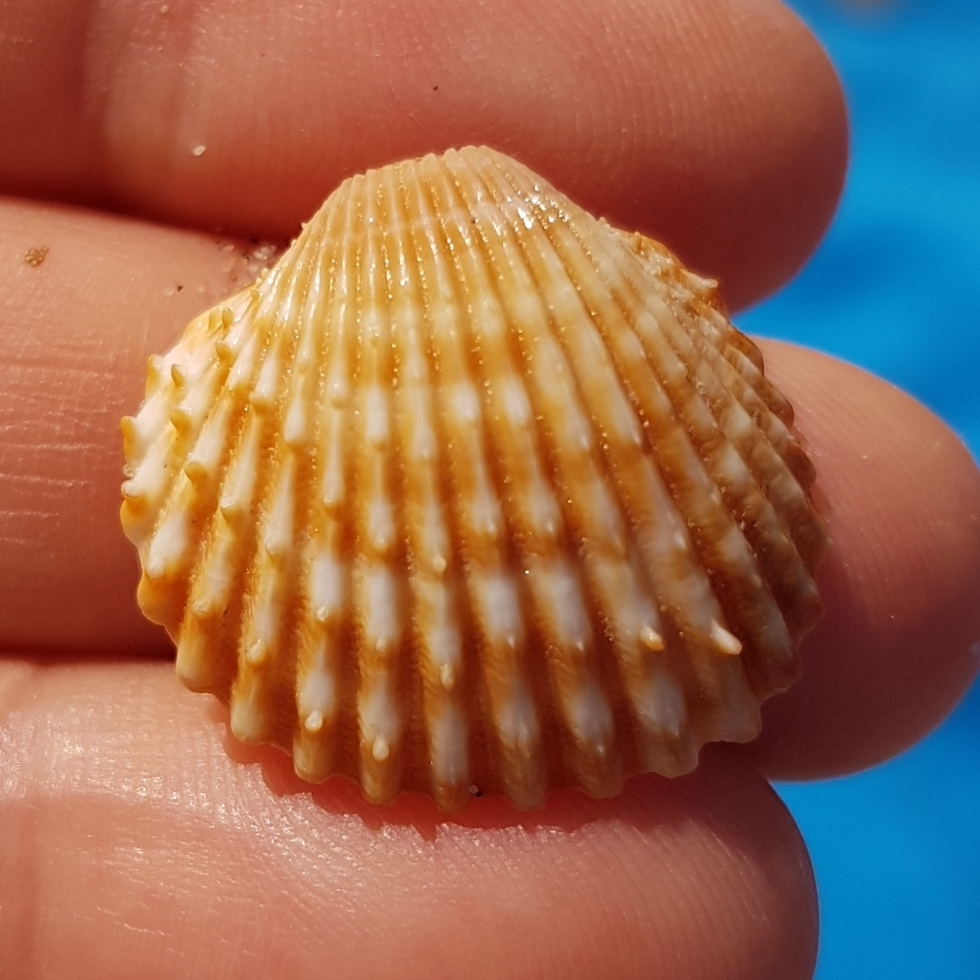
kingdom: Animalia
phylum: Mollusca
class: Bivalvia
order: Cardiida
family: Cardiidae
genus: Acanthocardia
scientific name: Acanthocardia echinata
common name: Prickly cockle
